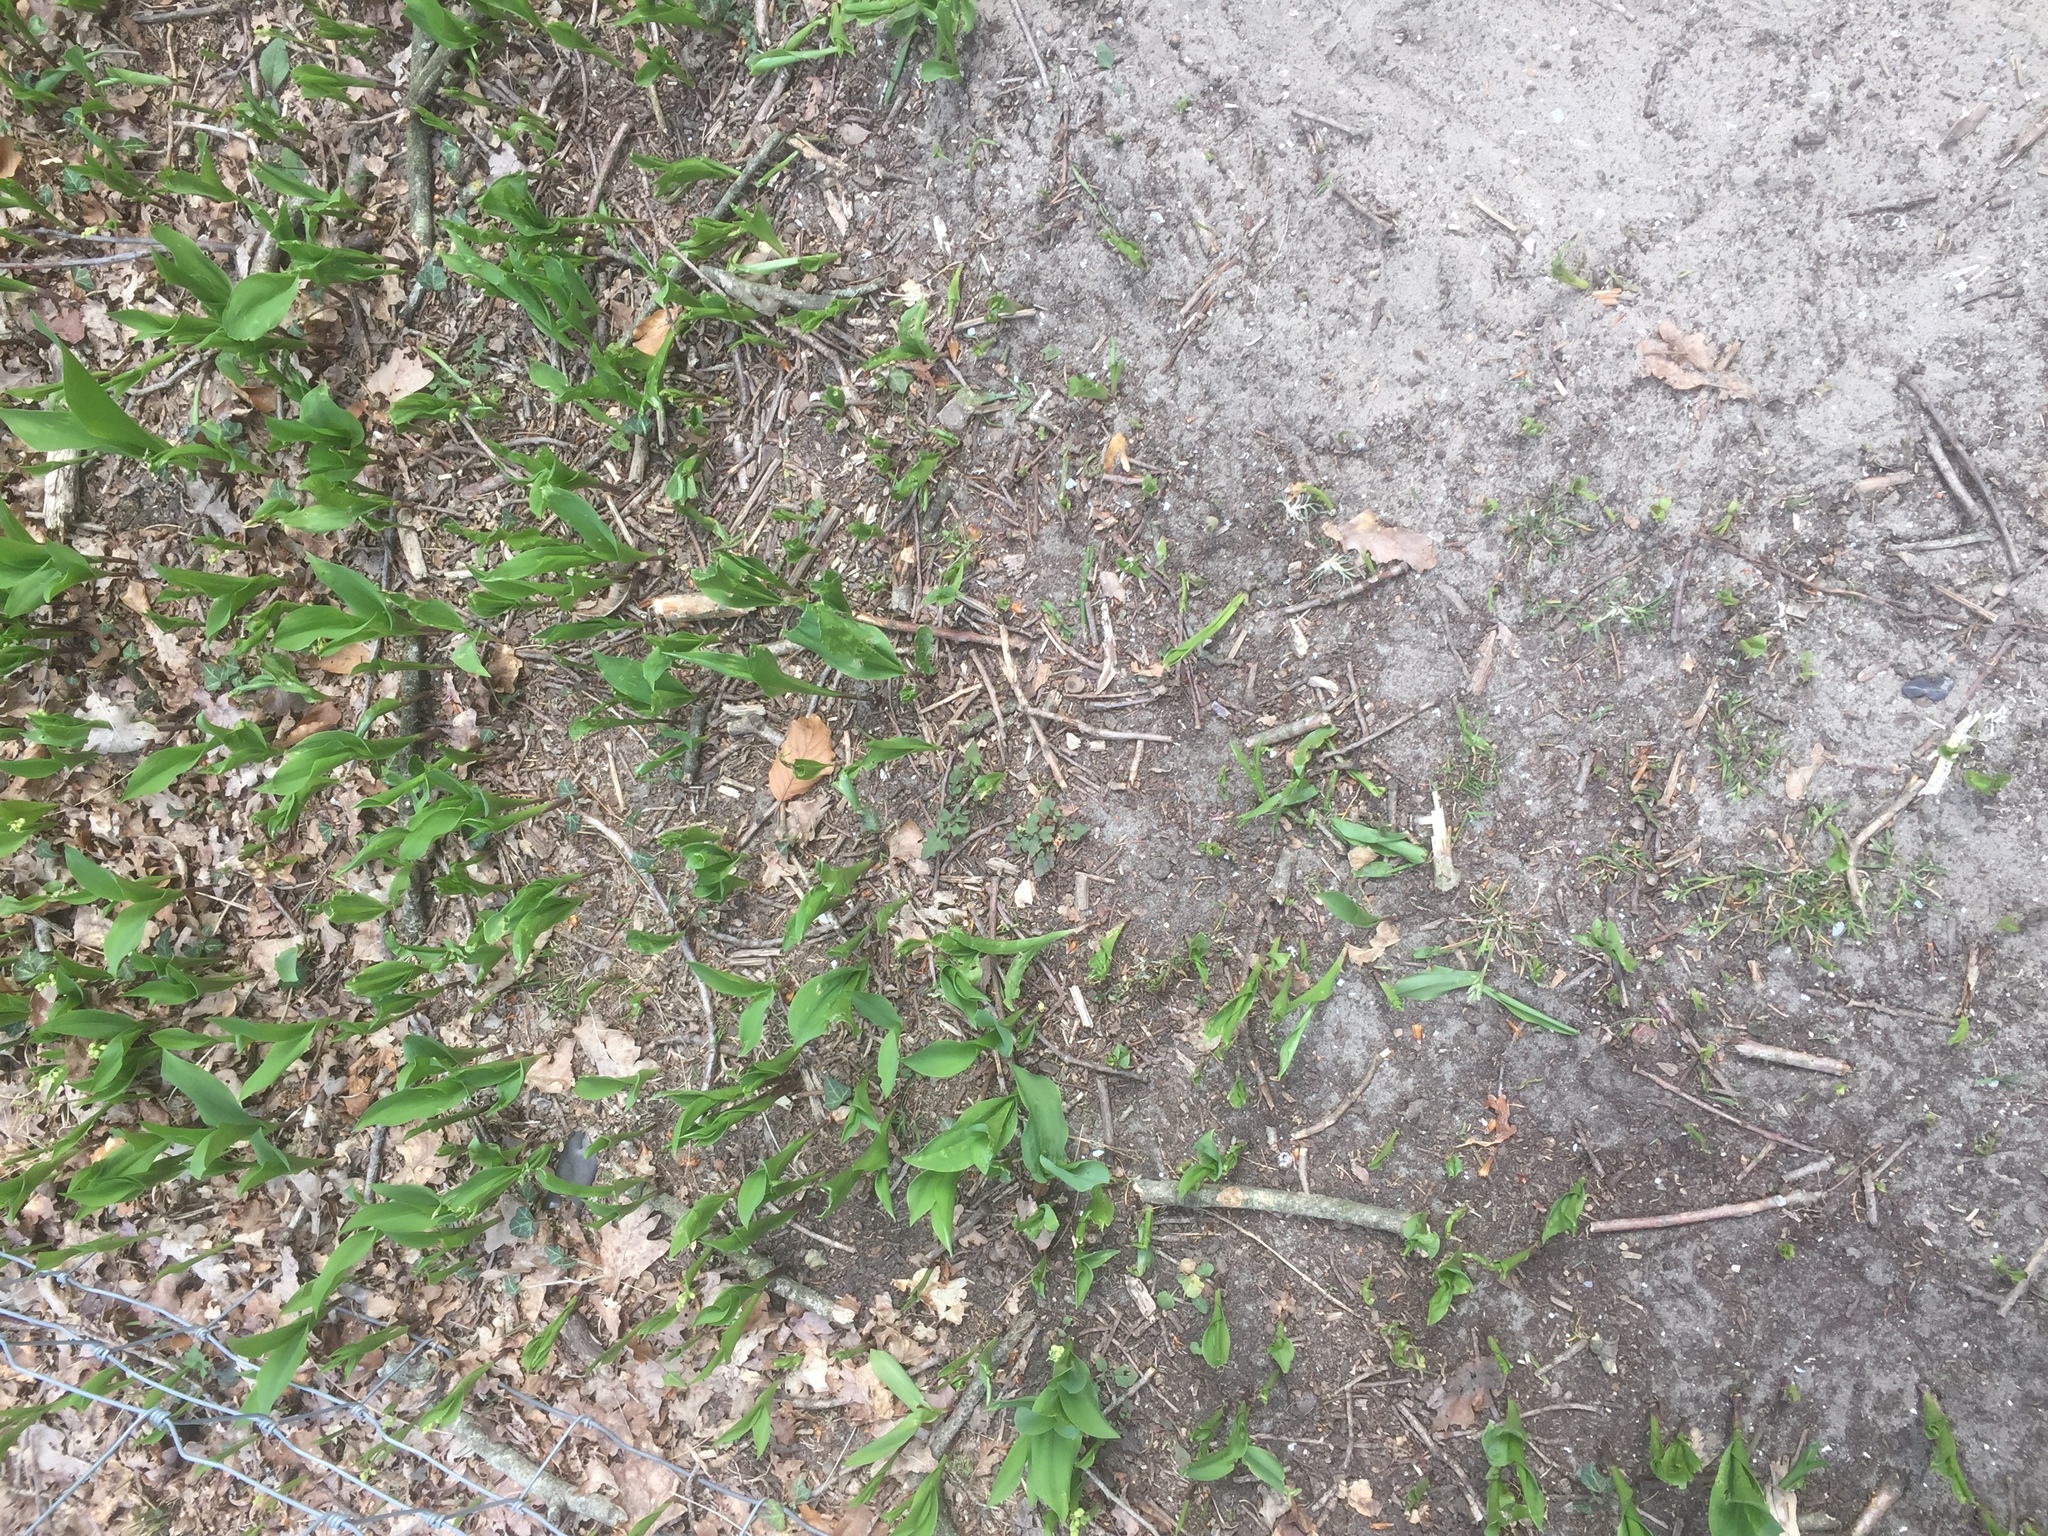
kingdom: Plantae
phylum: Tracheophyta
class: Liliopsida
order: Asparagales
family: Asparagaceae
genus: Convallaria
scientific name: Convallaria majalis
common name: Lily-of-the-valley
